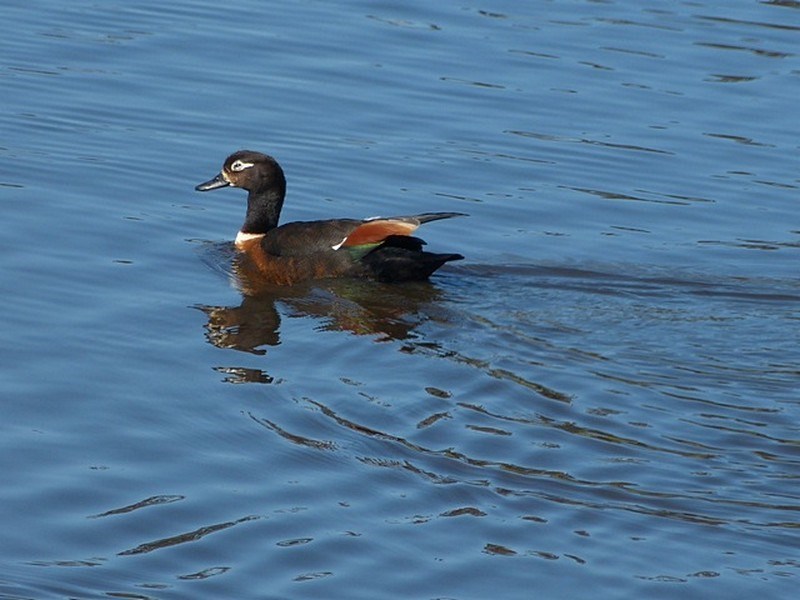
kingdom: Animalia
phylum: Chordata
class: Aves
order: Anseriformes
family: Anatidae
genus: Tadorna
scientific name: Tadorna tadornoides
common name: Australian shelduck
